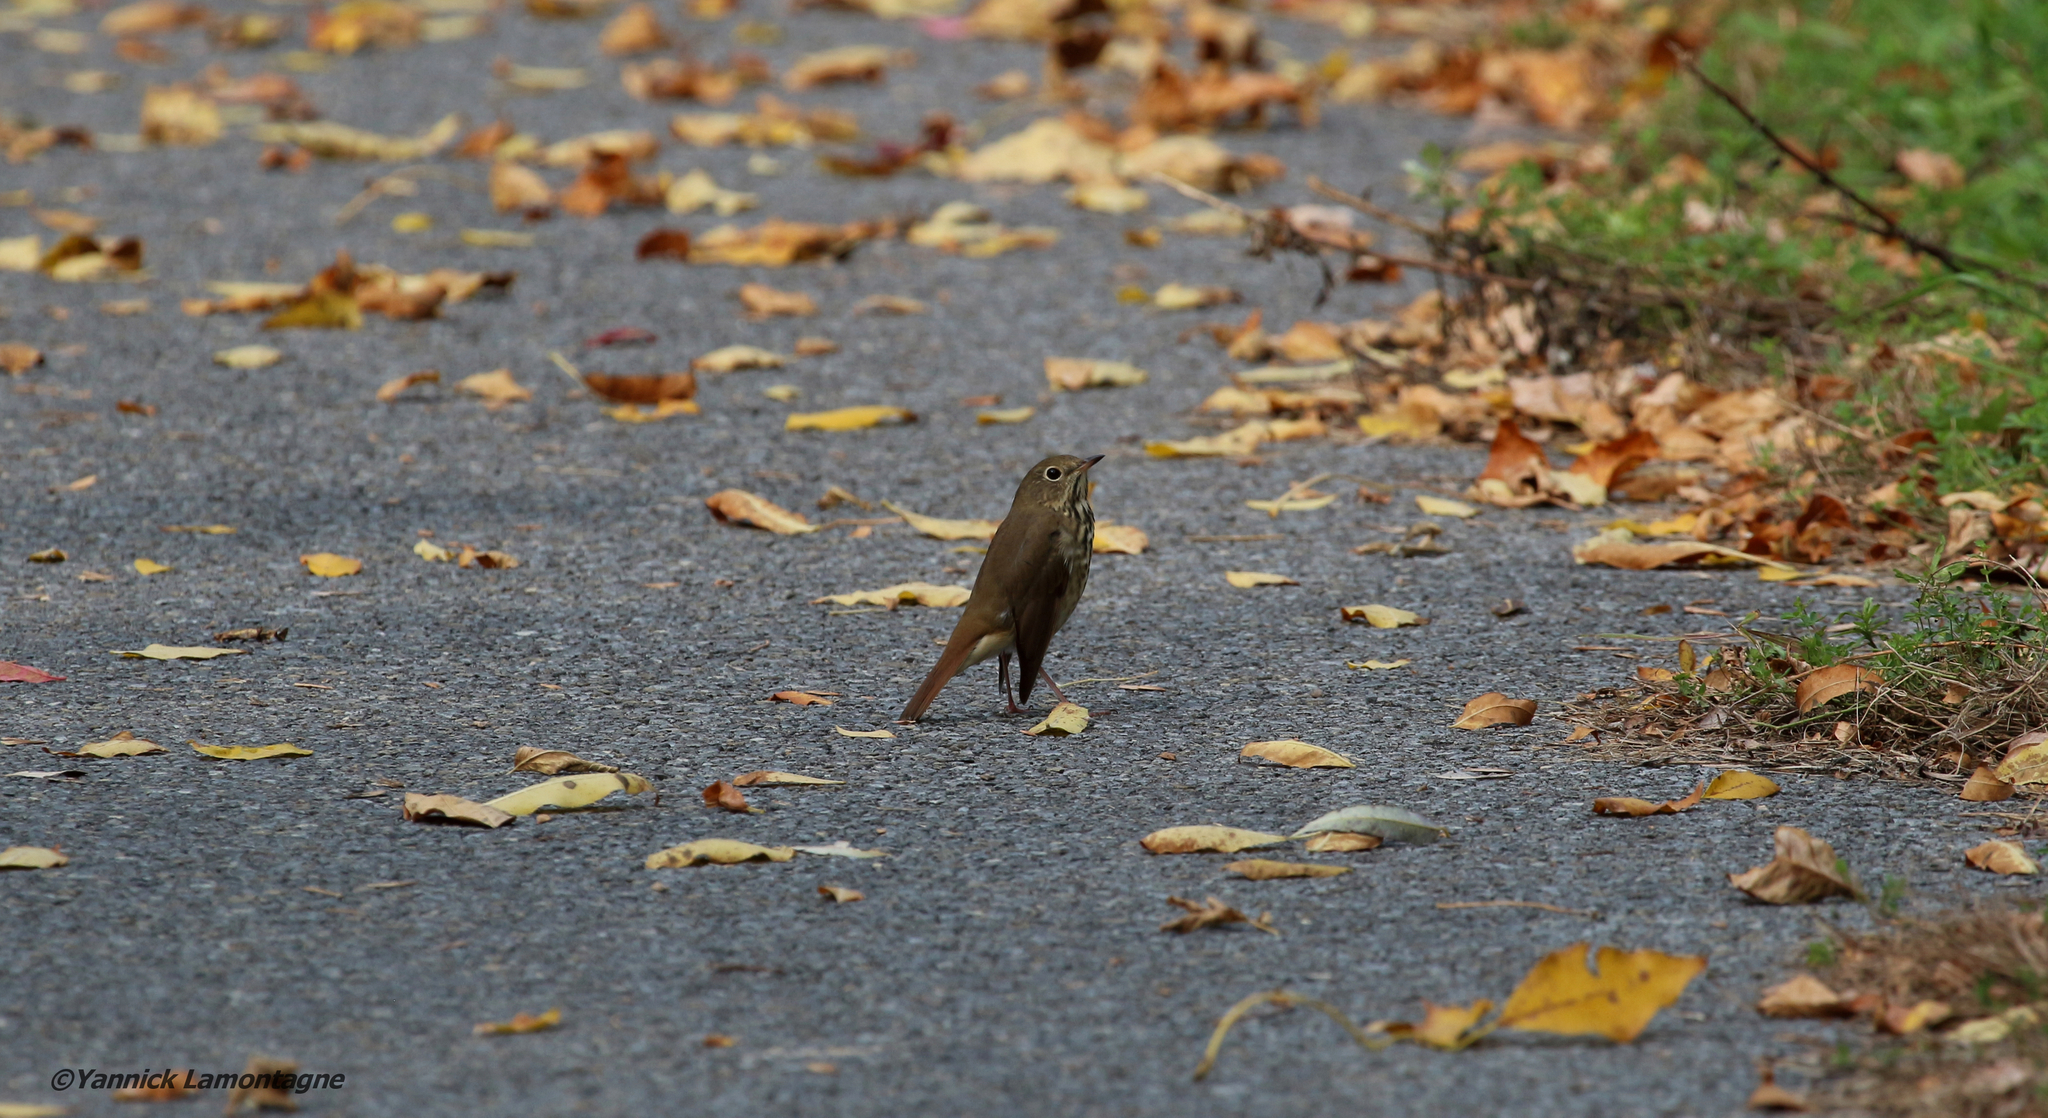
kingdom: Animalia
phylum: Chordata
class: Aves
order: Passeriformes
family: Turdidae
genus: Catharus
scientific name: Catharus guttatus
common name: Hermit thrush
